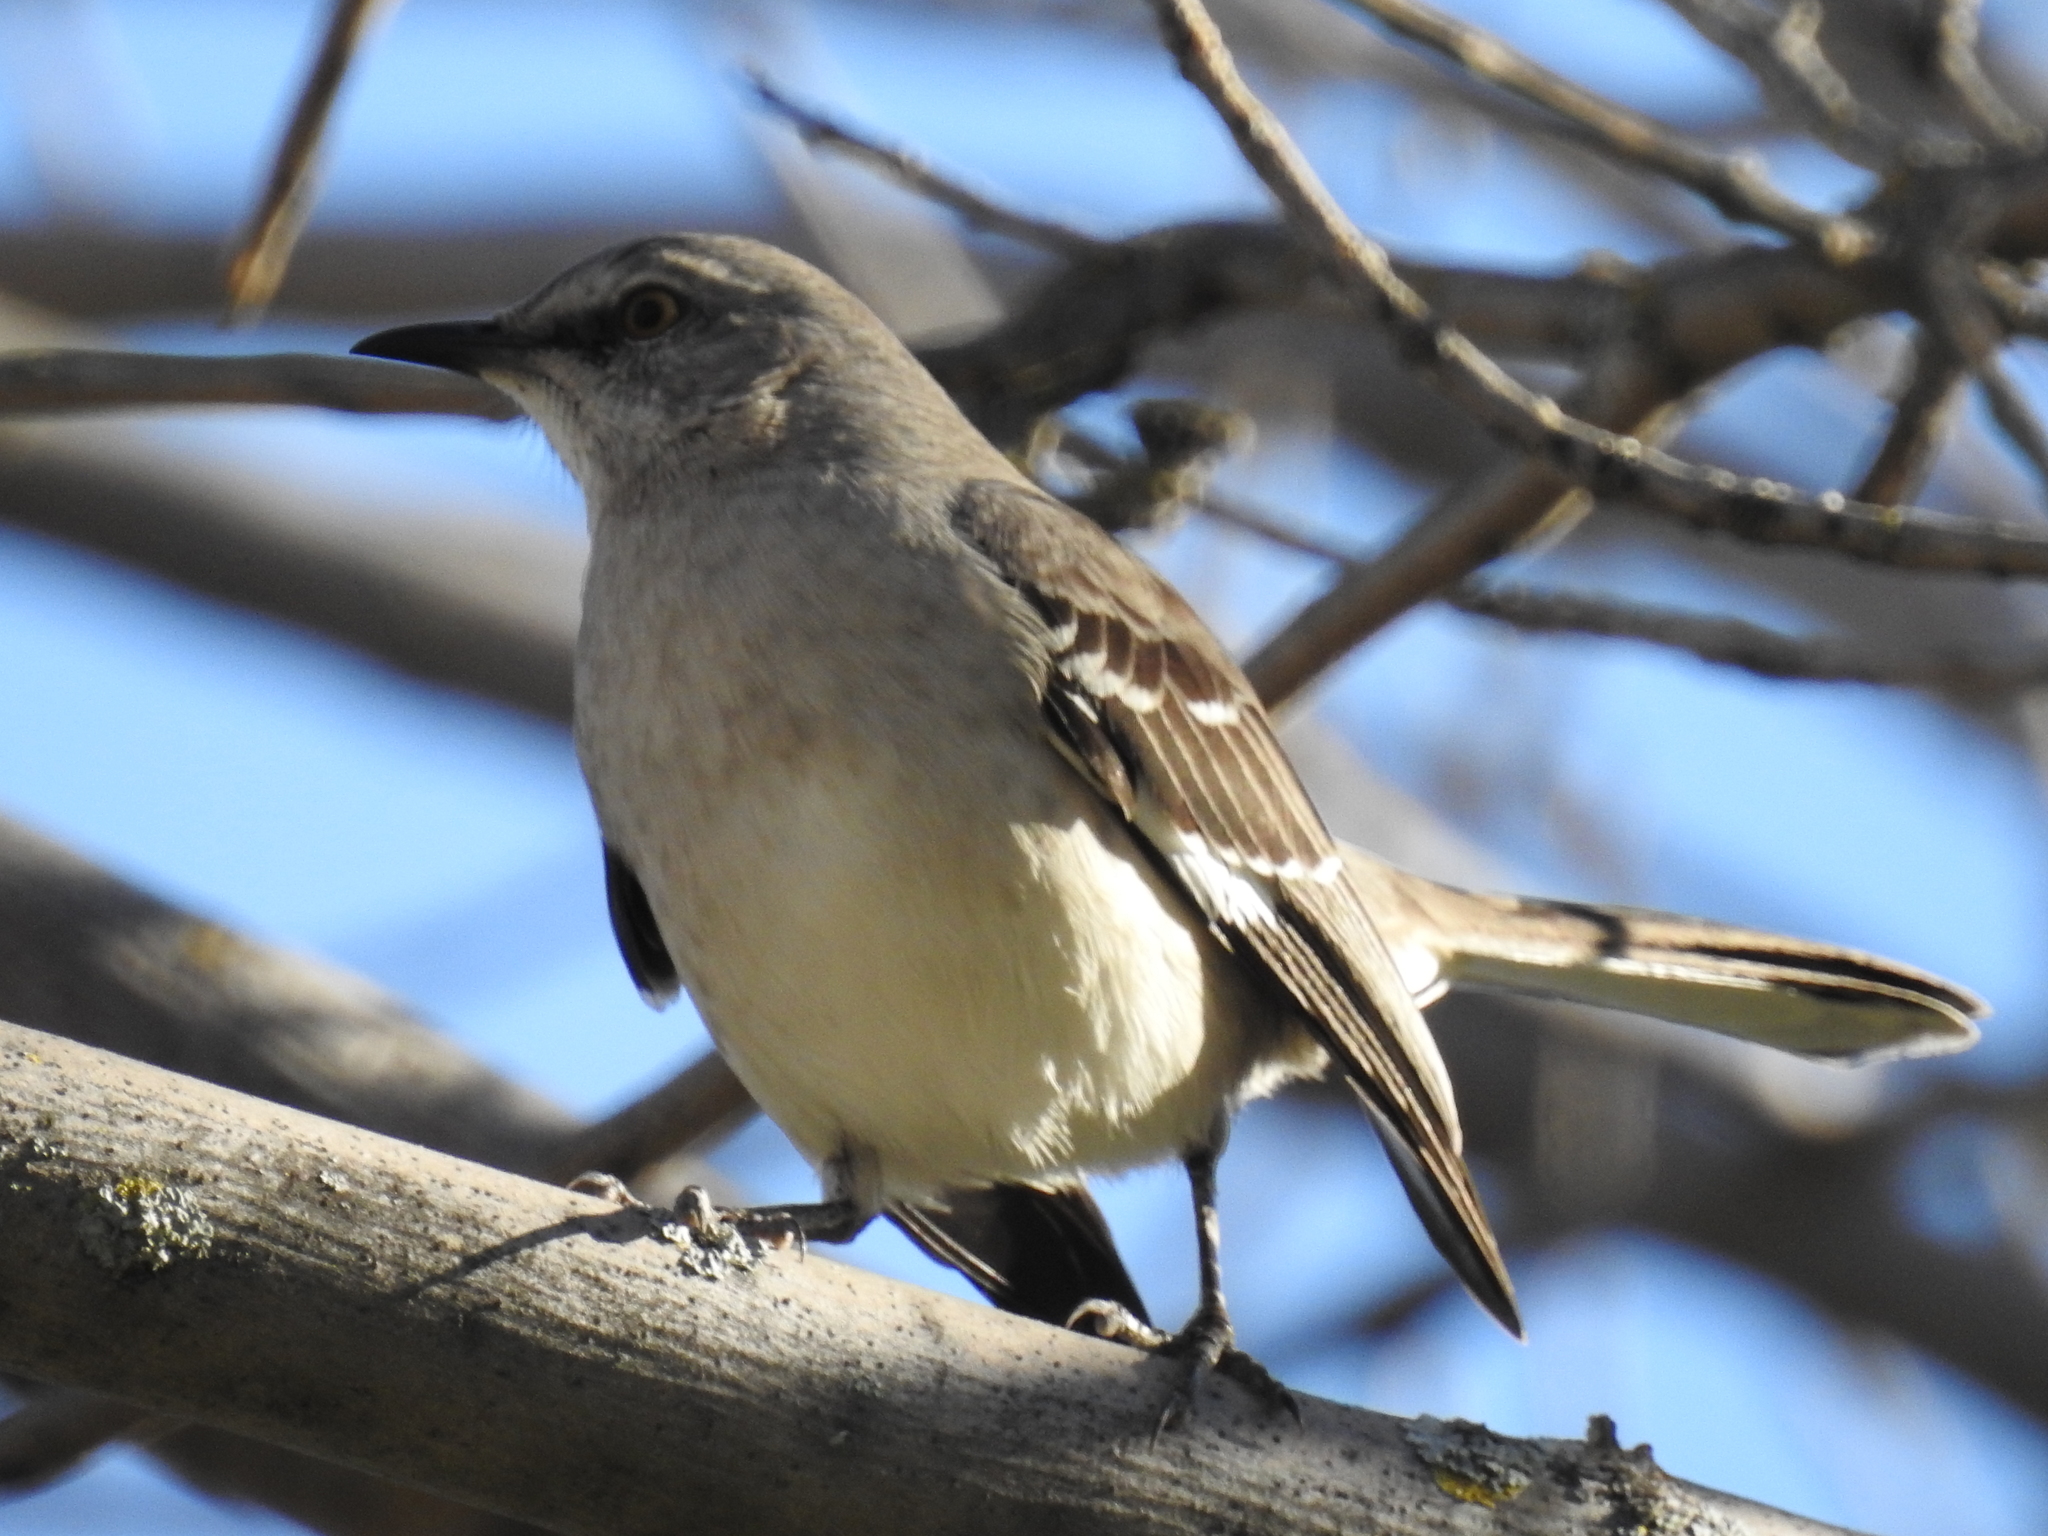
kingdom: Animalia
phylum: Chordata
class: Aves
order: Passeriformes
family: Mimidae
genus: Mimus
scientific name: Mimus polyglottos
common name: Northern mockingbird
